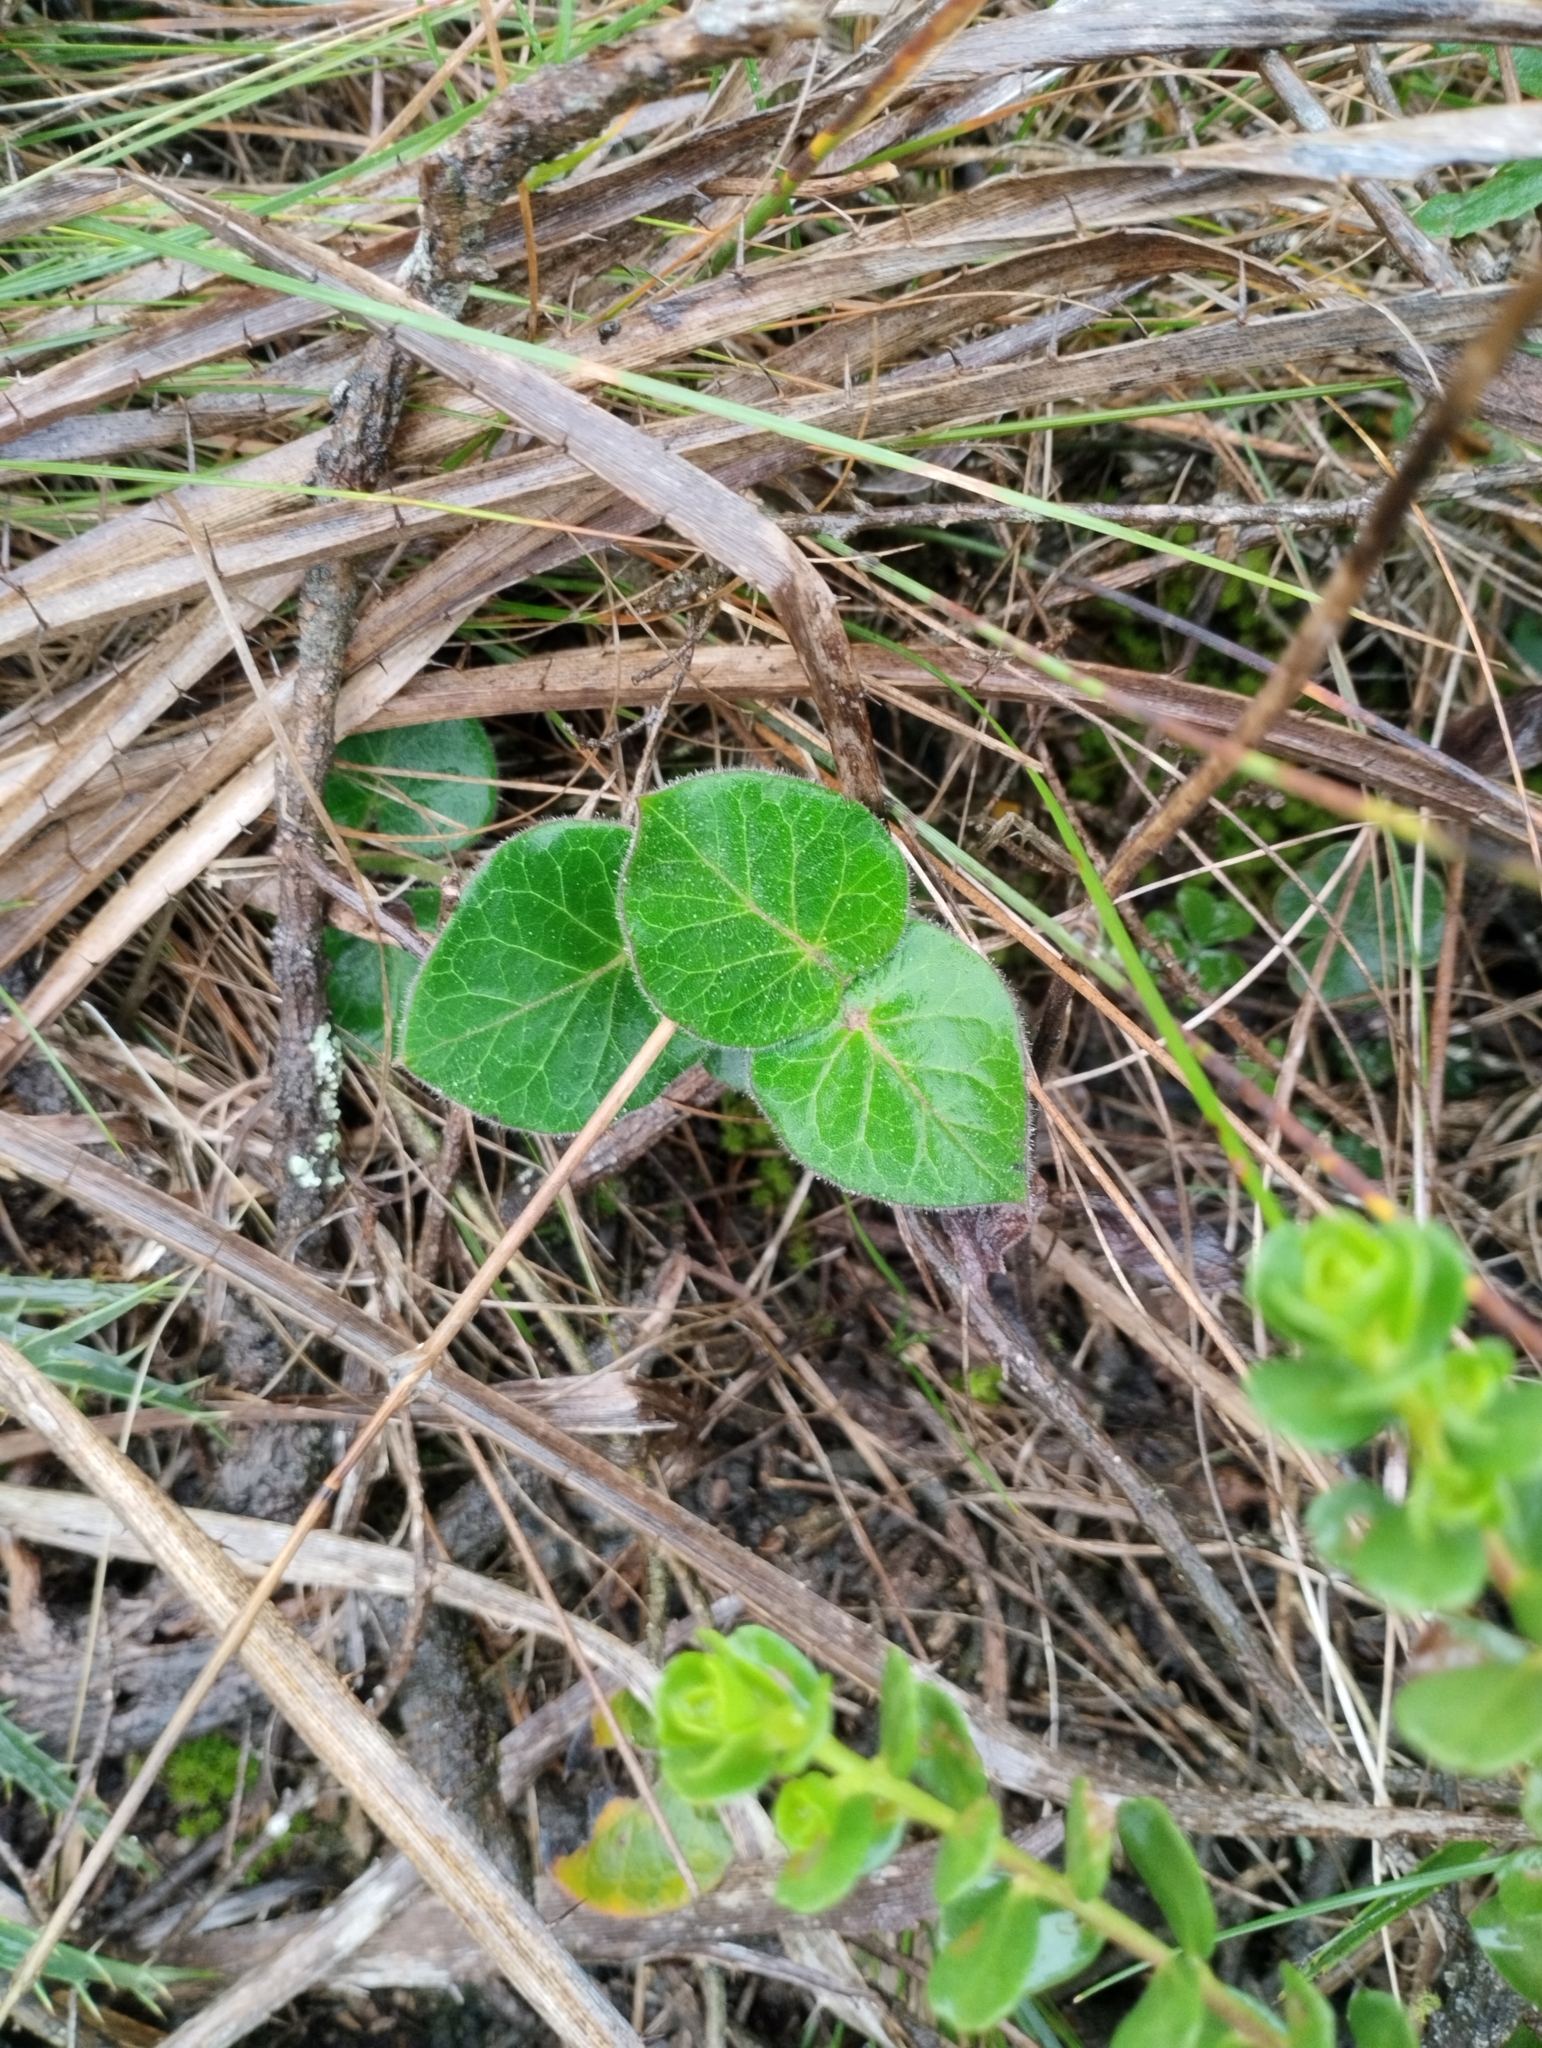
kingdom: Plantae
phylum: Tracheophyta
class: Magnoliopsida
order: Gentianales
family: Apocynaceae
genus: Oxypetalum
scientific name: Oxypetalum tomentosum
